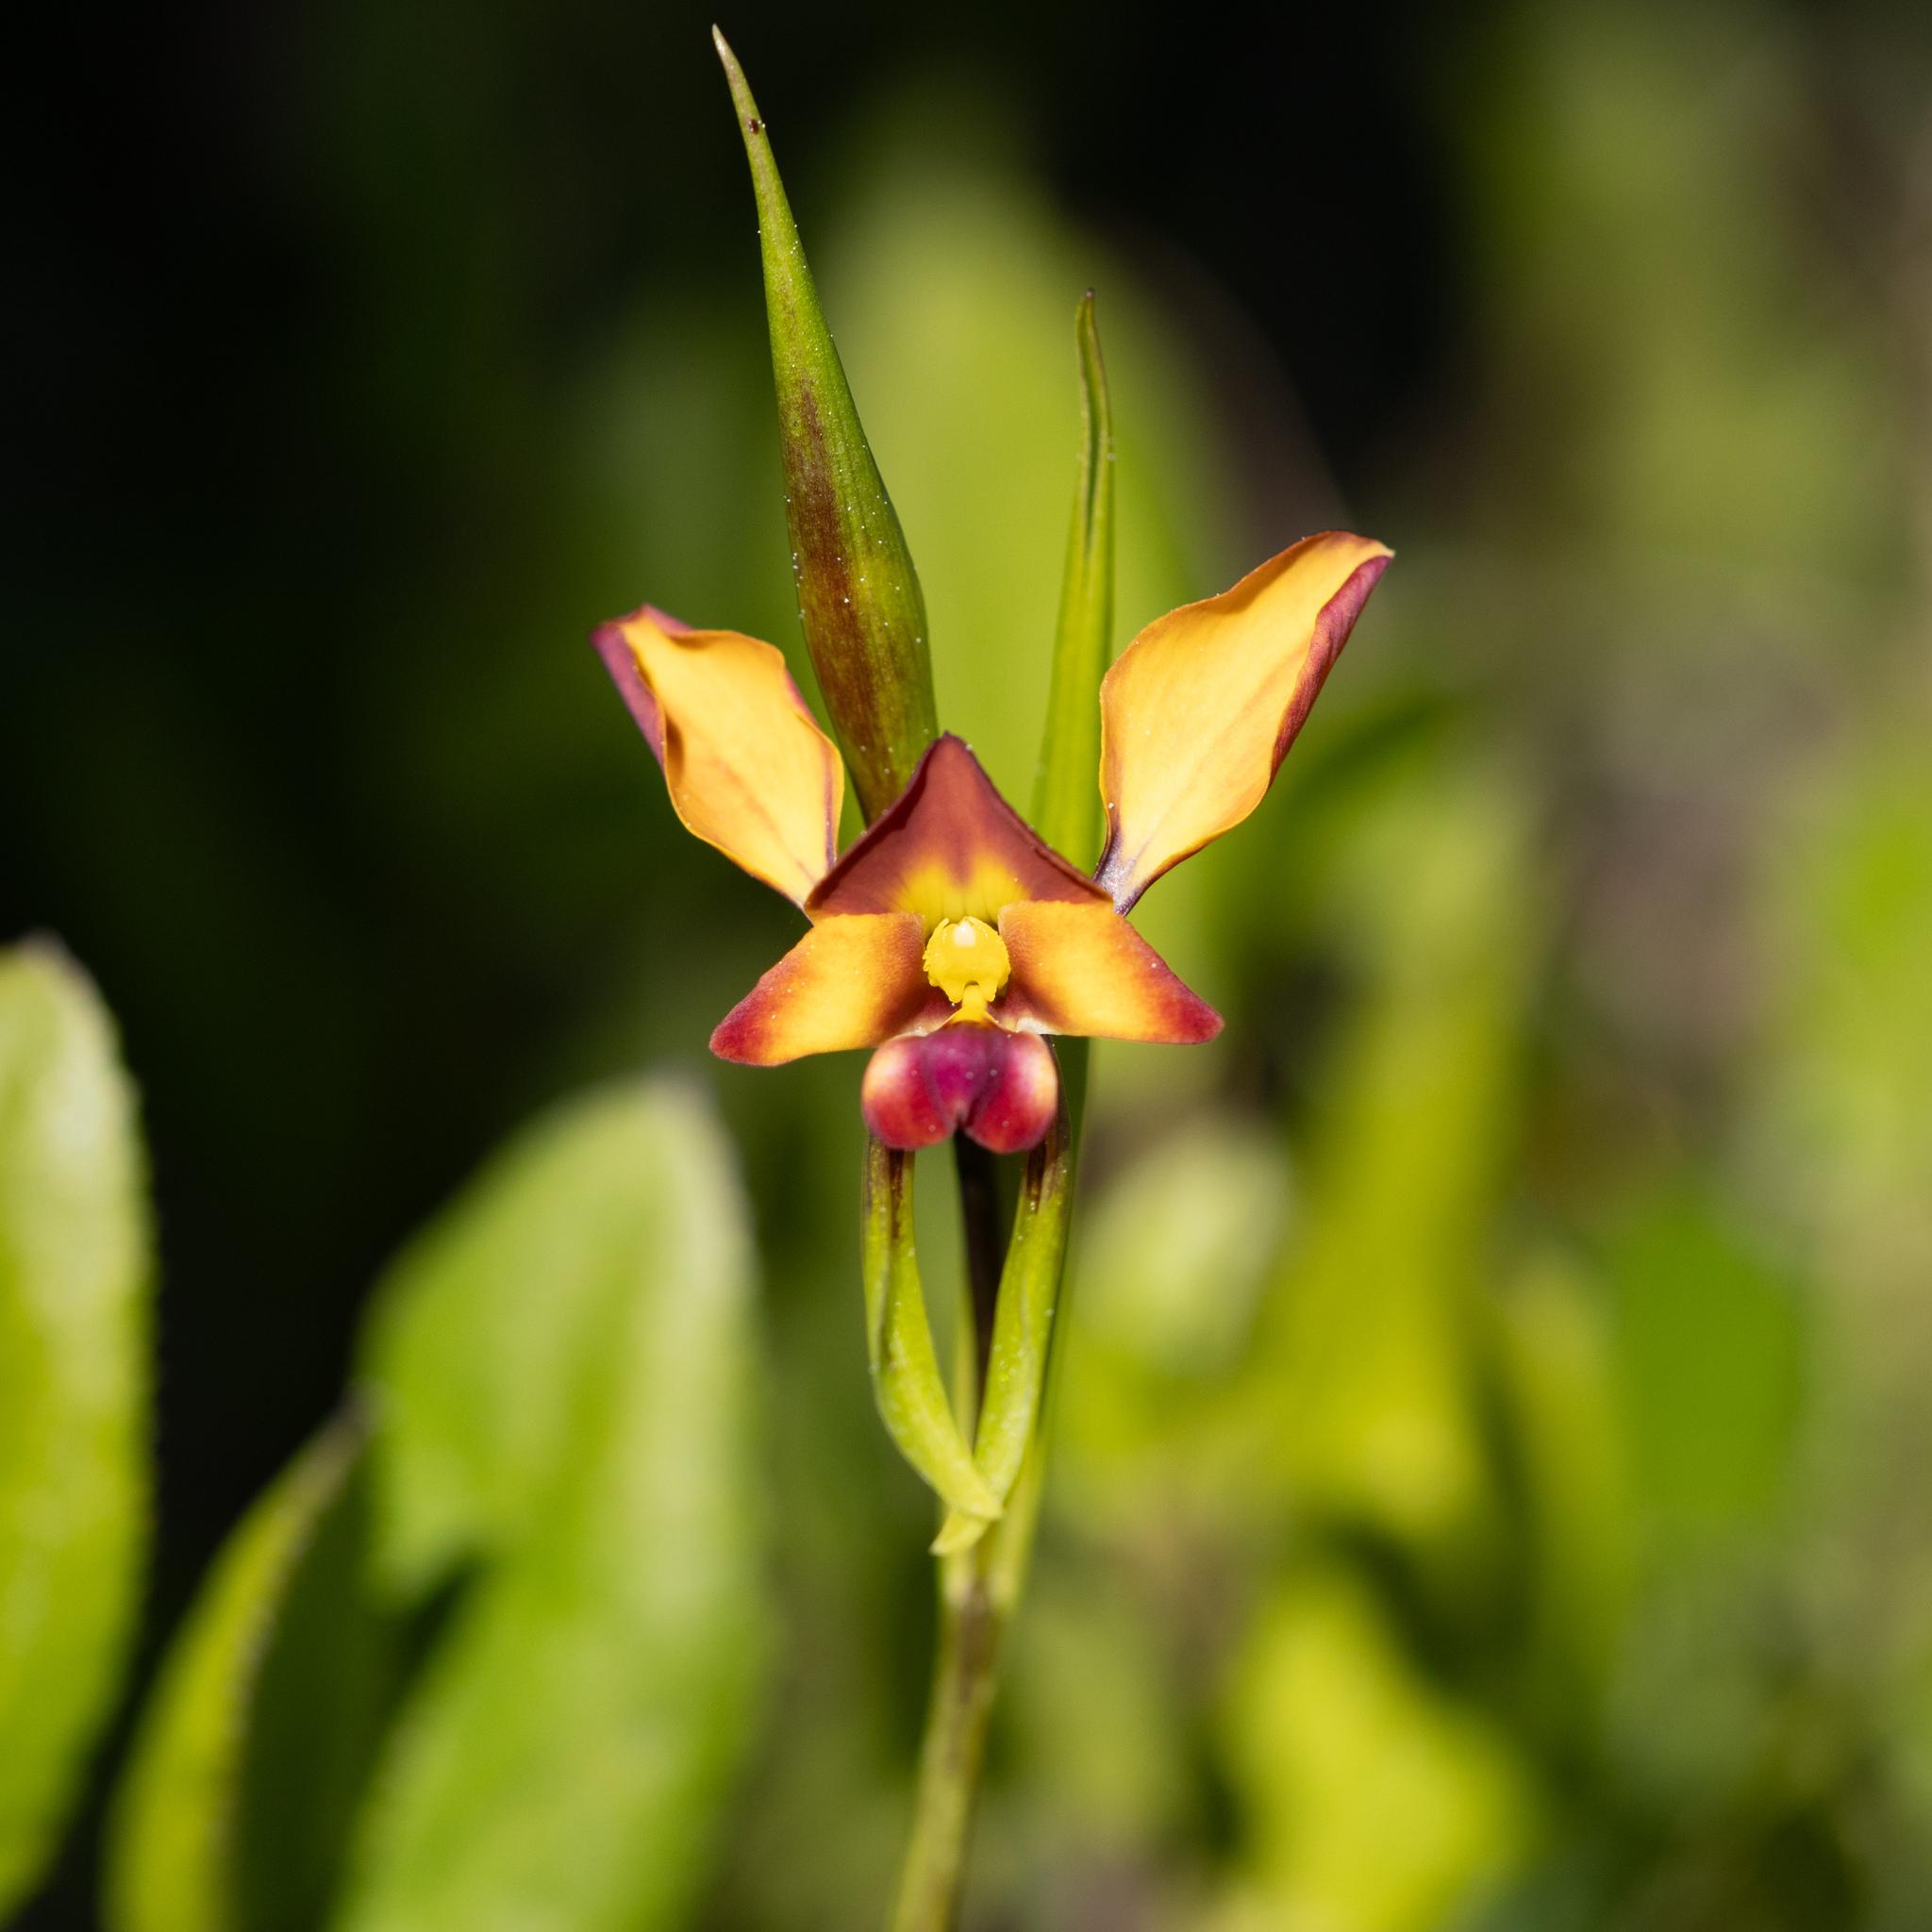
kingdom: Plantae
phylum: Tracheophyta
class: Liliopsida
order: Asparagales
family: Orchidaceae
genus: Diuris
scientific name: Diuris orientis
